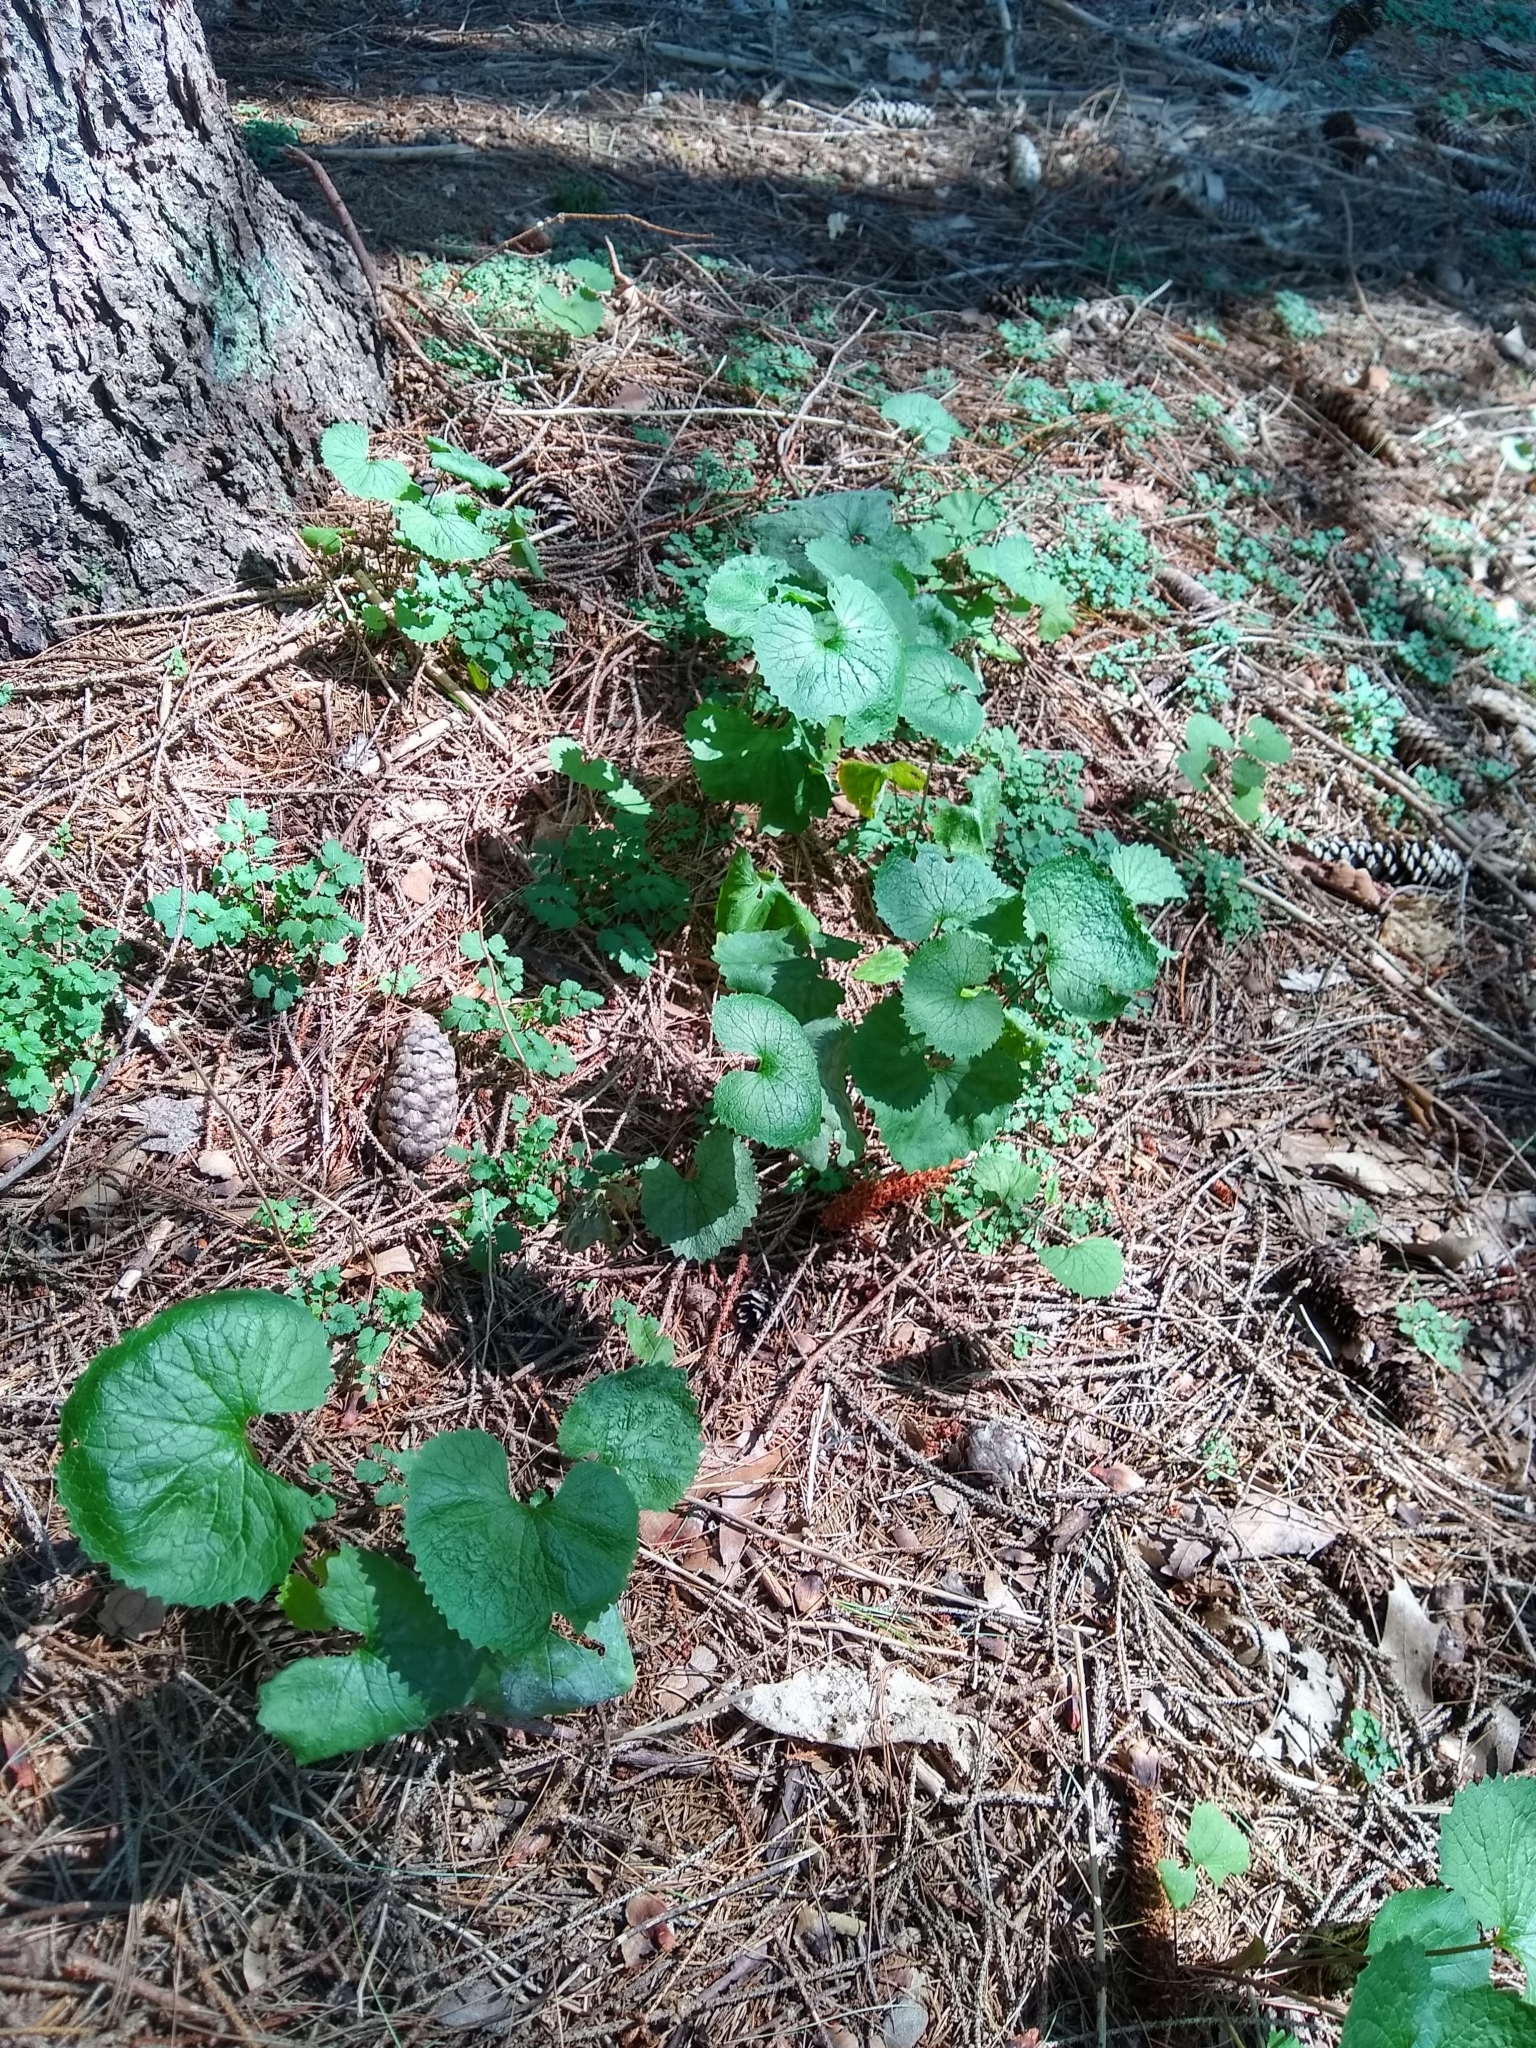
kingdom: Plantae
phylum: Tracheophyta
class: Magnoliopsida
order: Brassicales
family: Brassicaceae
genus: Alliaria
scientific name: Alliaria petiolata
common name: Garlic mustard
